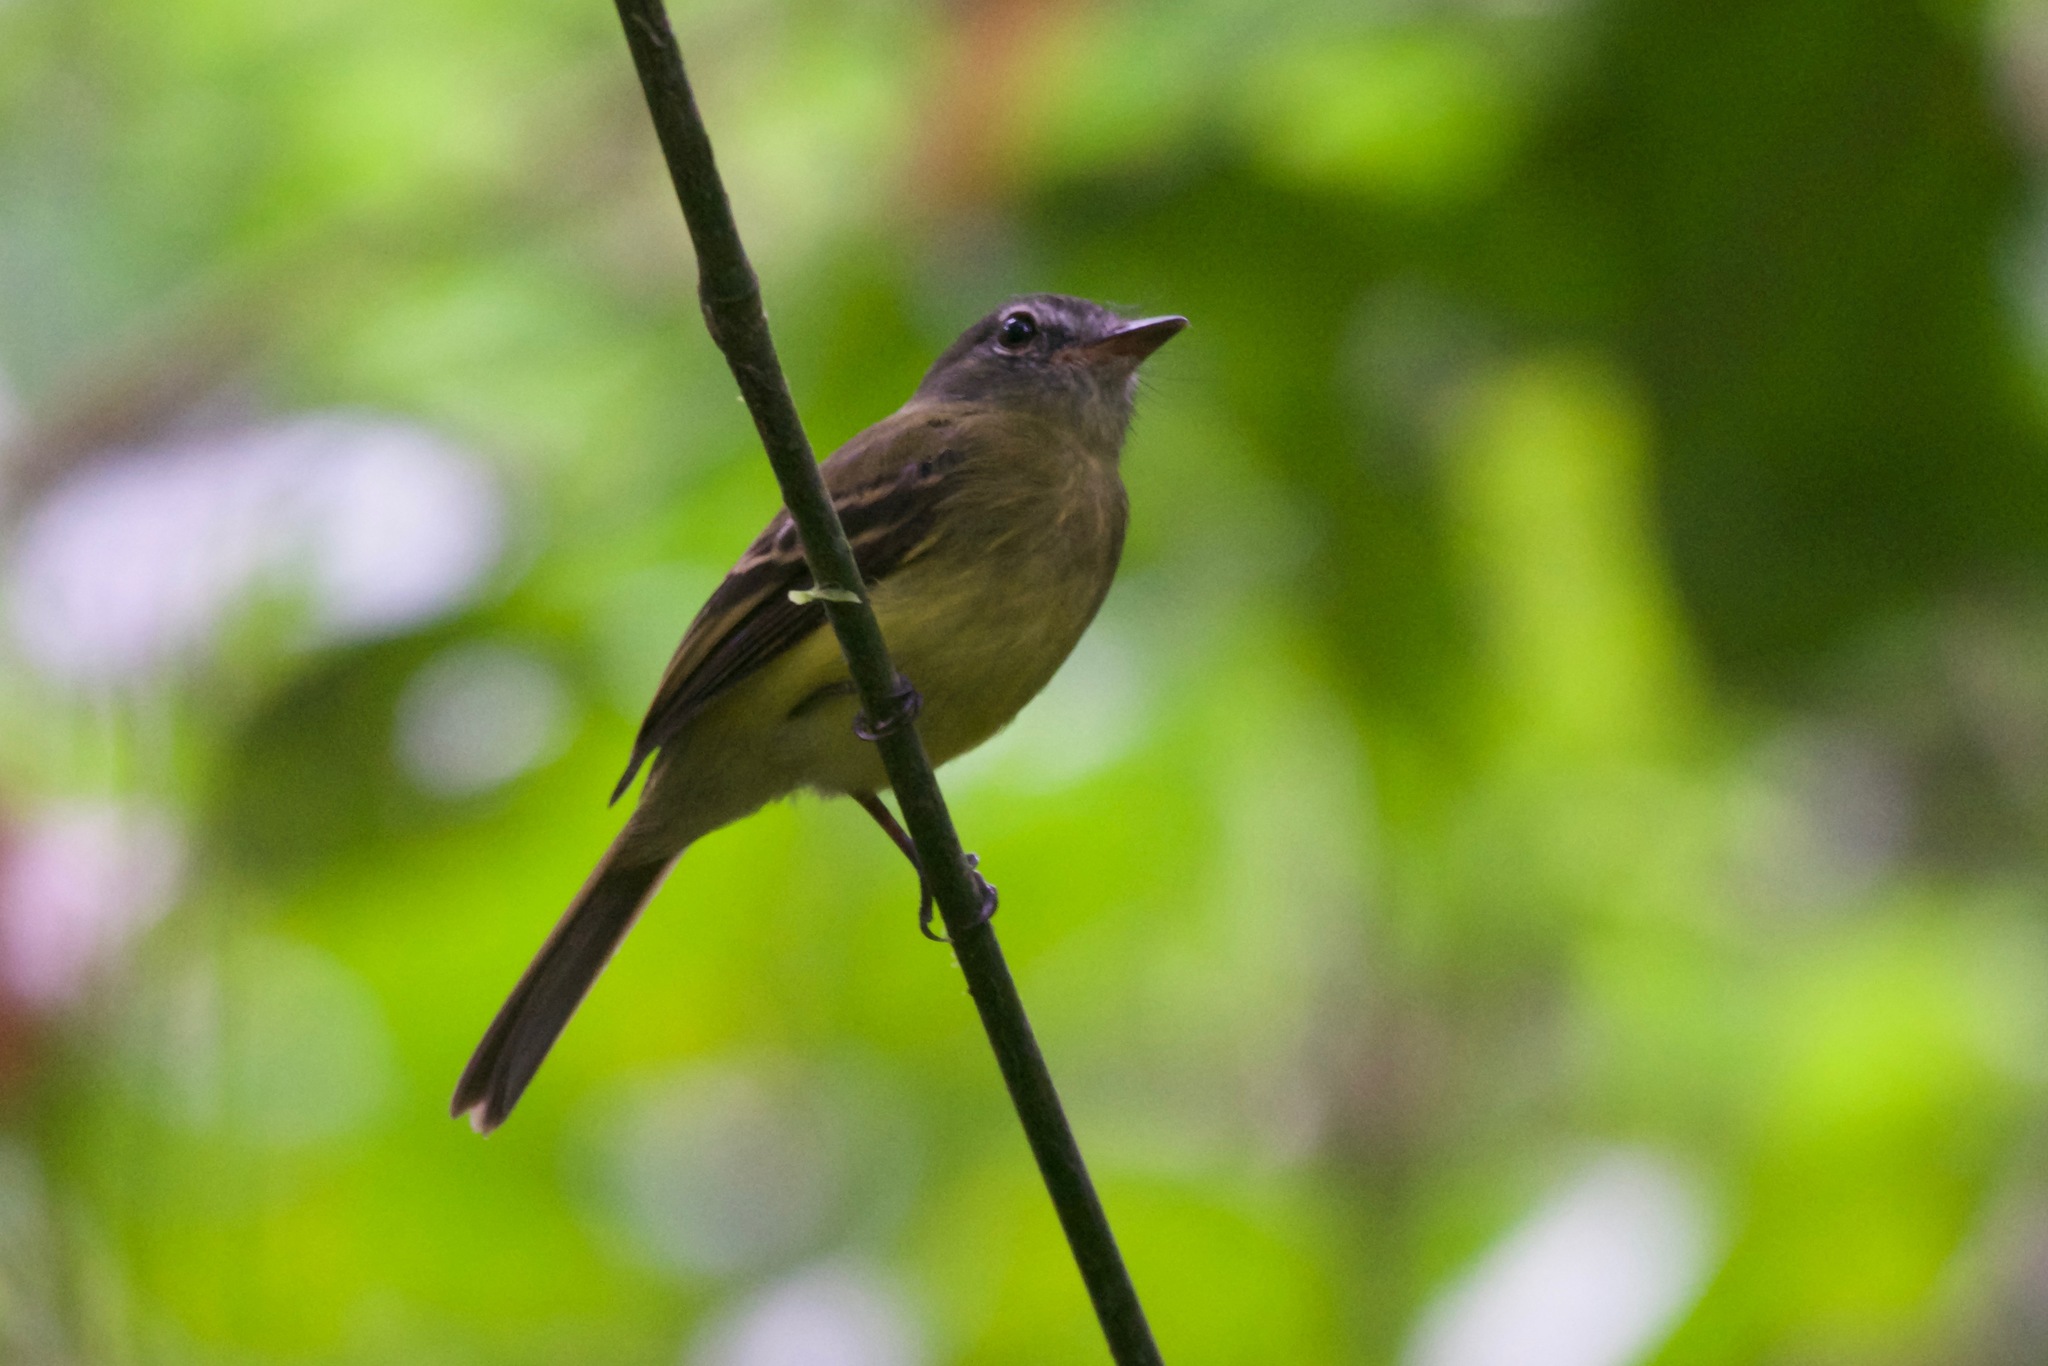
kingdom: Animalia
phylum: Chordata
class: Aves
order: Passeriformes
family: Tyrannidae
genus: Aphanotriccus
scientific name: Aphanotriccus audax
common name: Black-billed flycatcher
